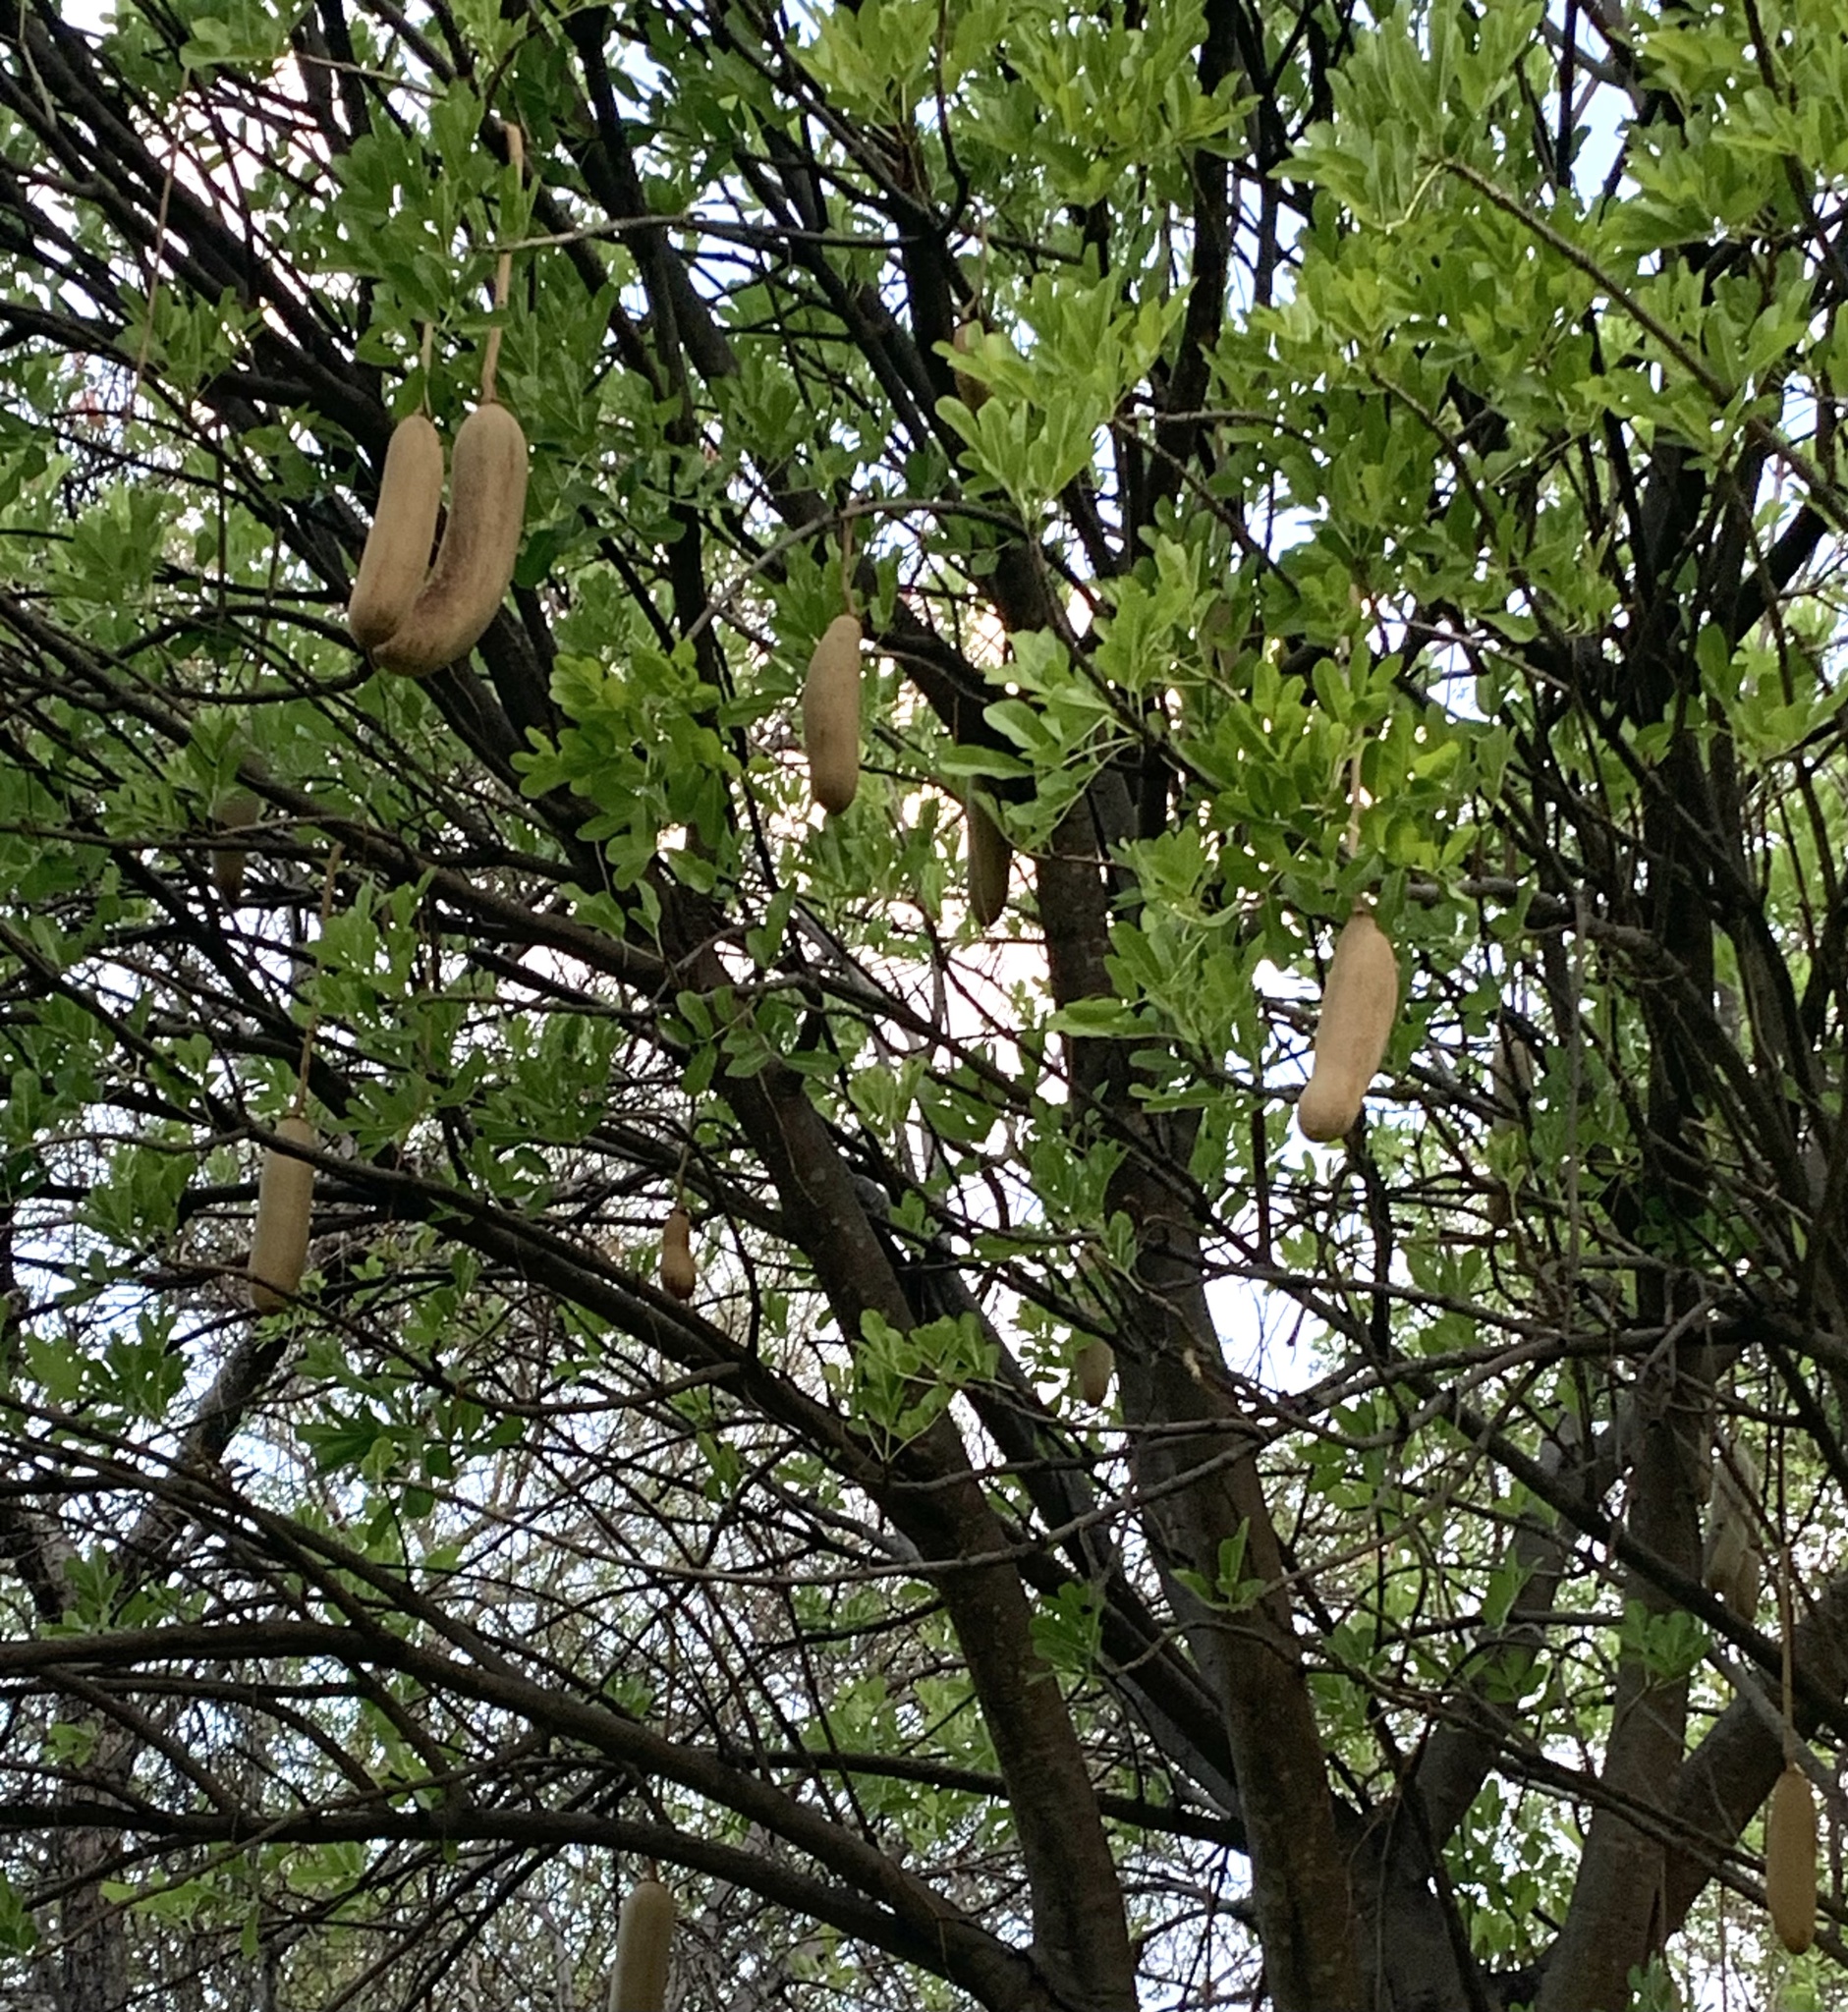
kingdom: Plantae
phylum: Tracheophyta
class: Magnoliopsida
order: Lamiales
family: Bignoniaceae
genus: Kigelia
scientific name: Kigelia africana
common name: Sausage tree
